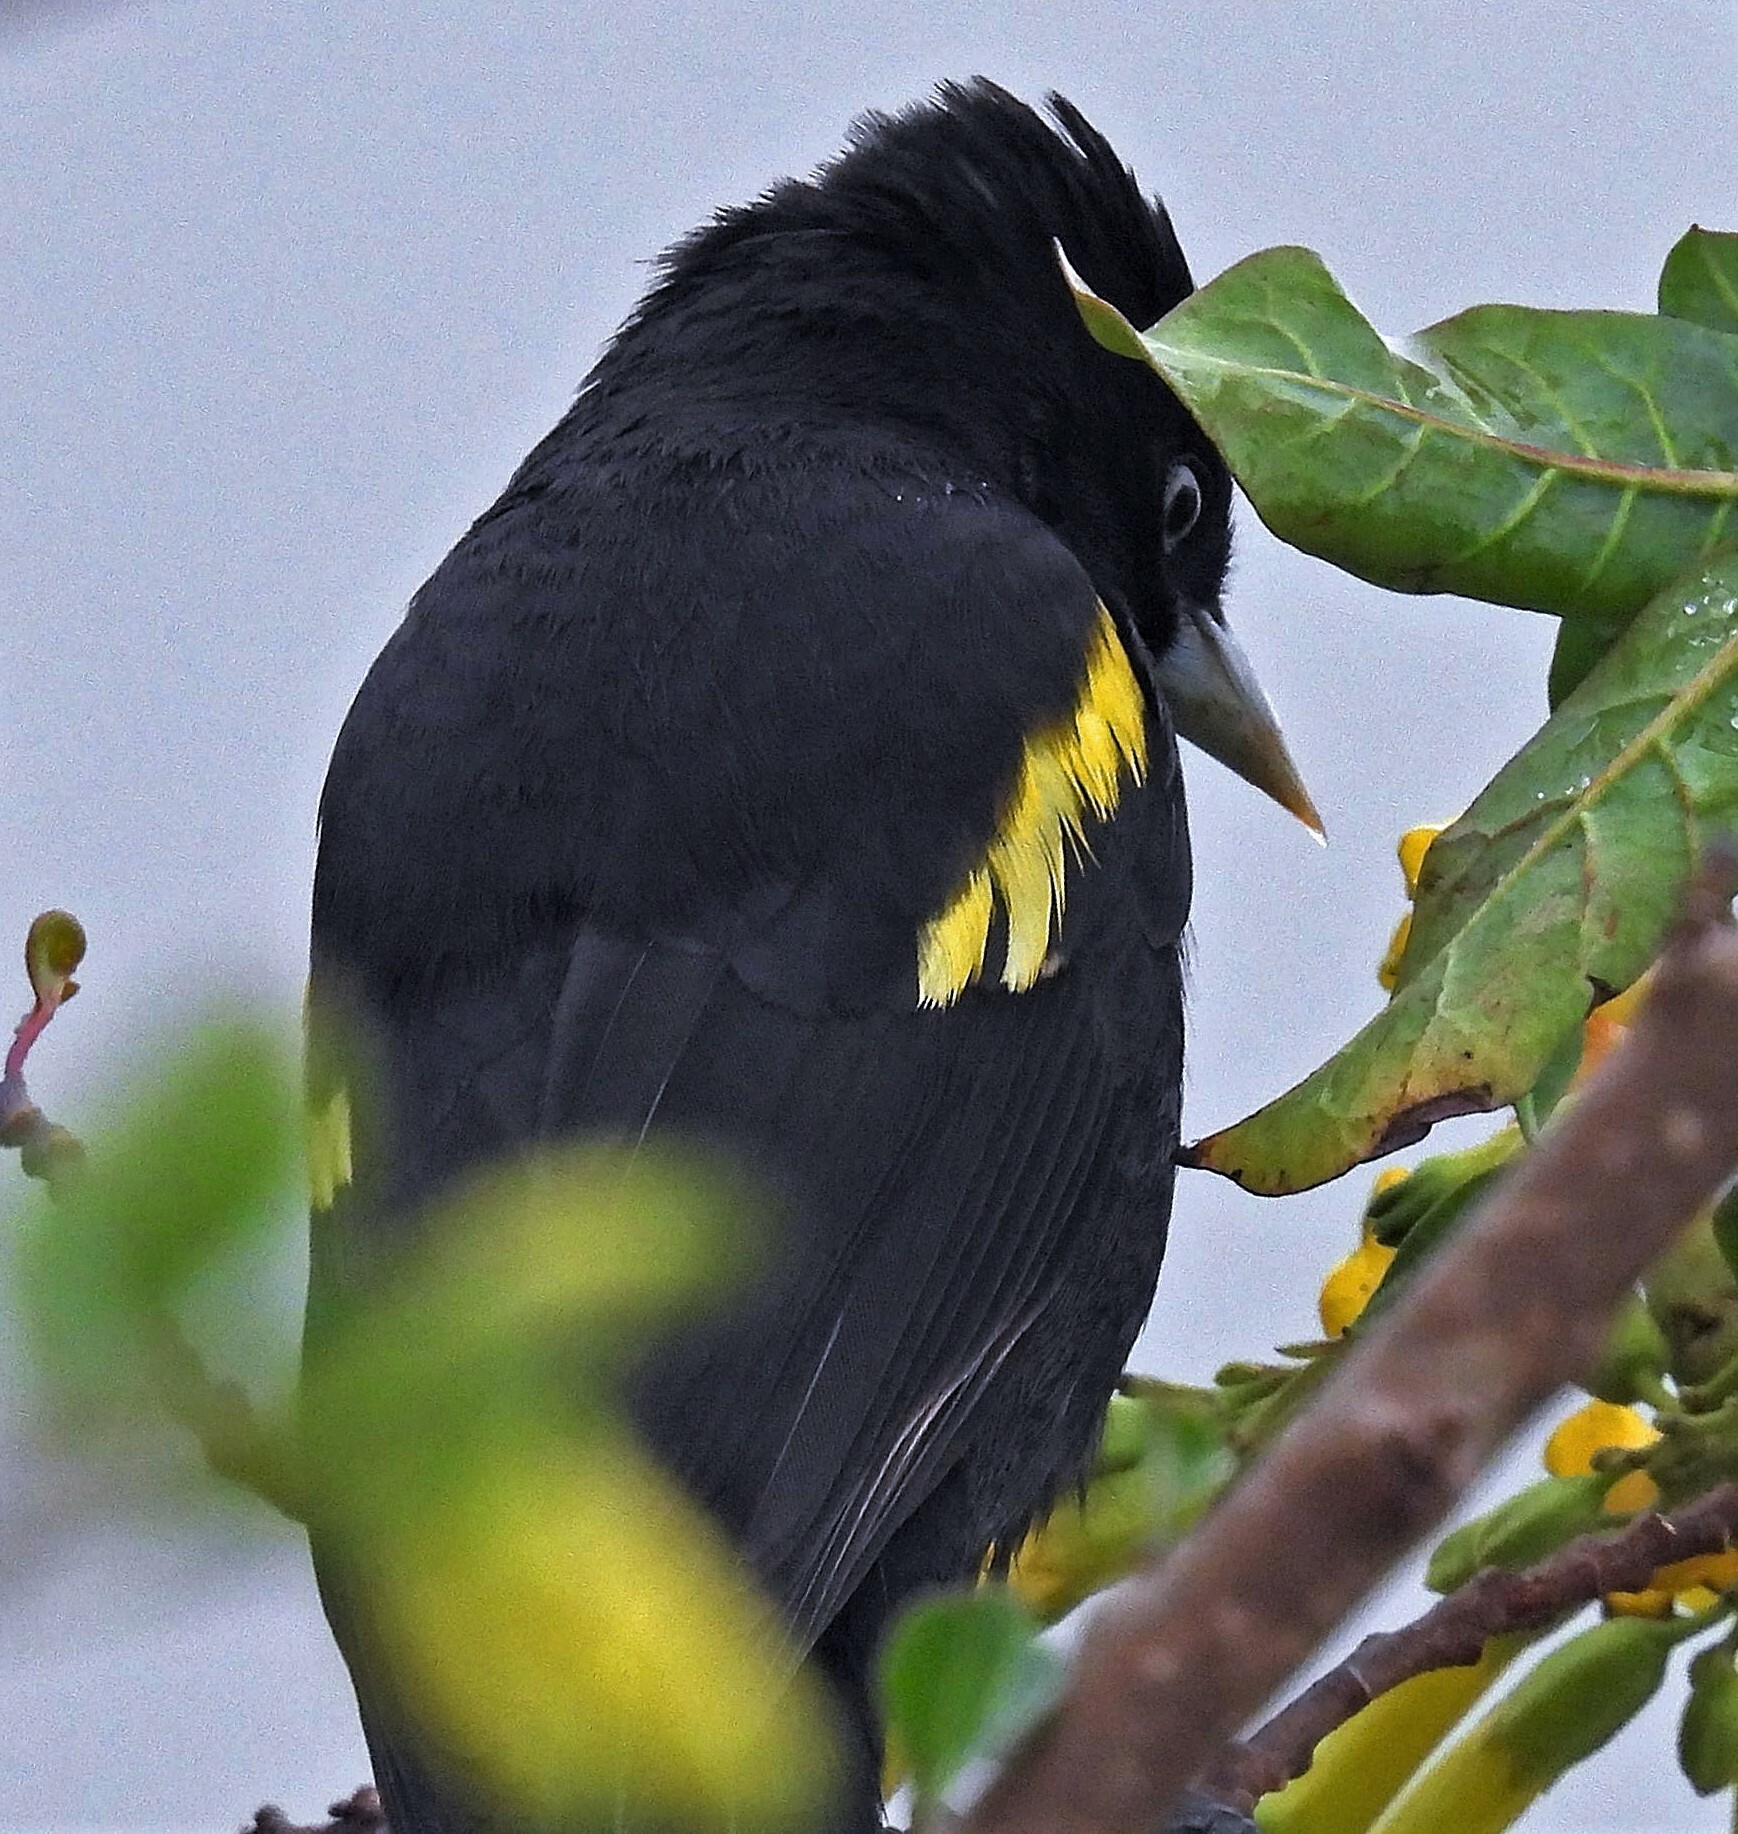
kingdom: Animalia
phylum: Chordata
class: Aves
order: Passeriformes
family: Icteridae
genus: Cacicus
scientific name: Cacicus chrysopterus
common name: Golden-winged cacique
